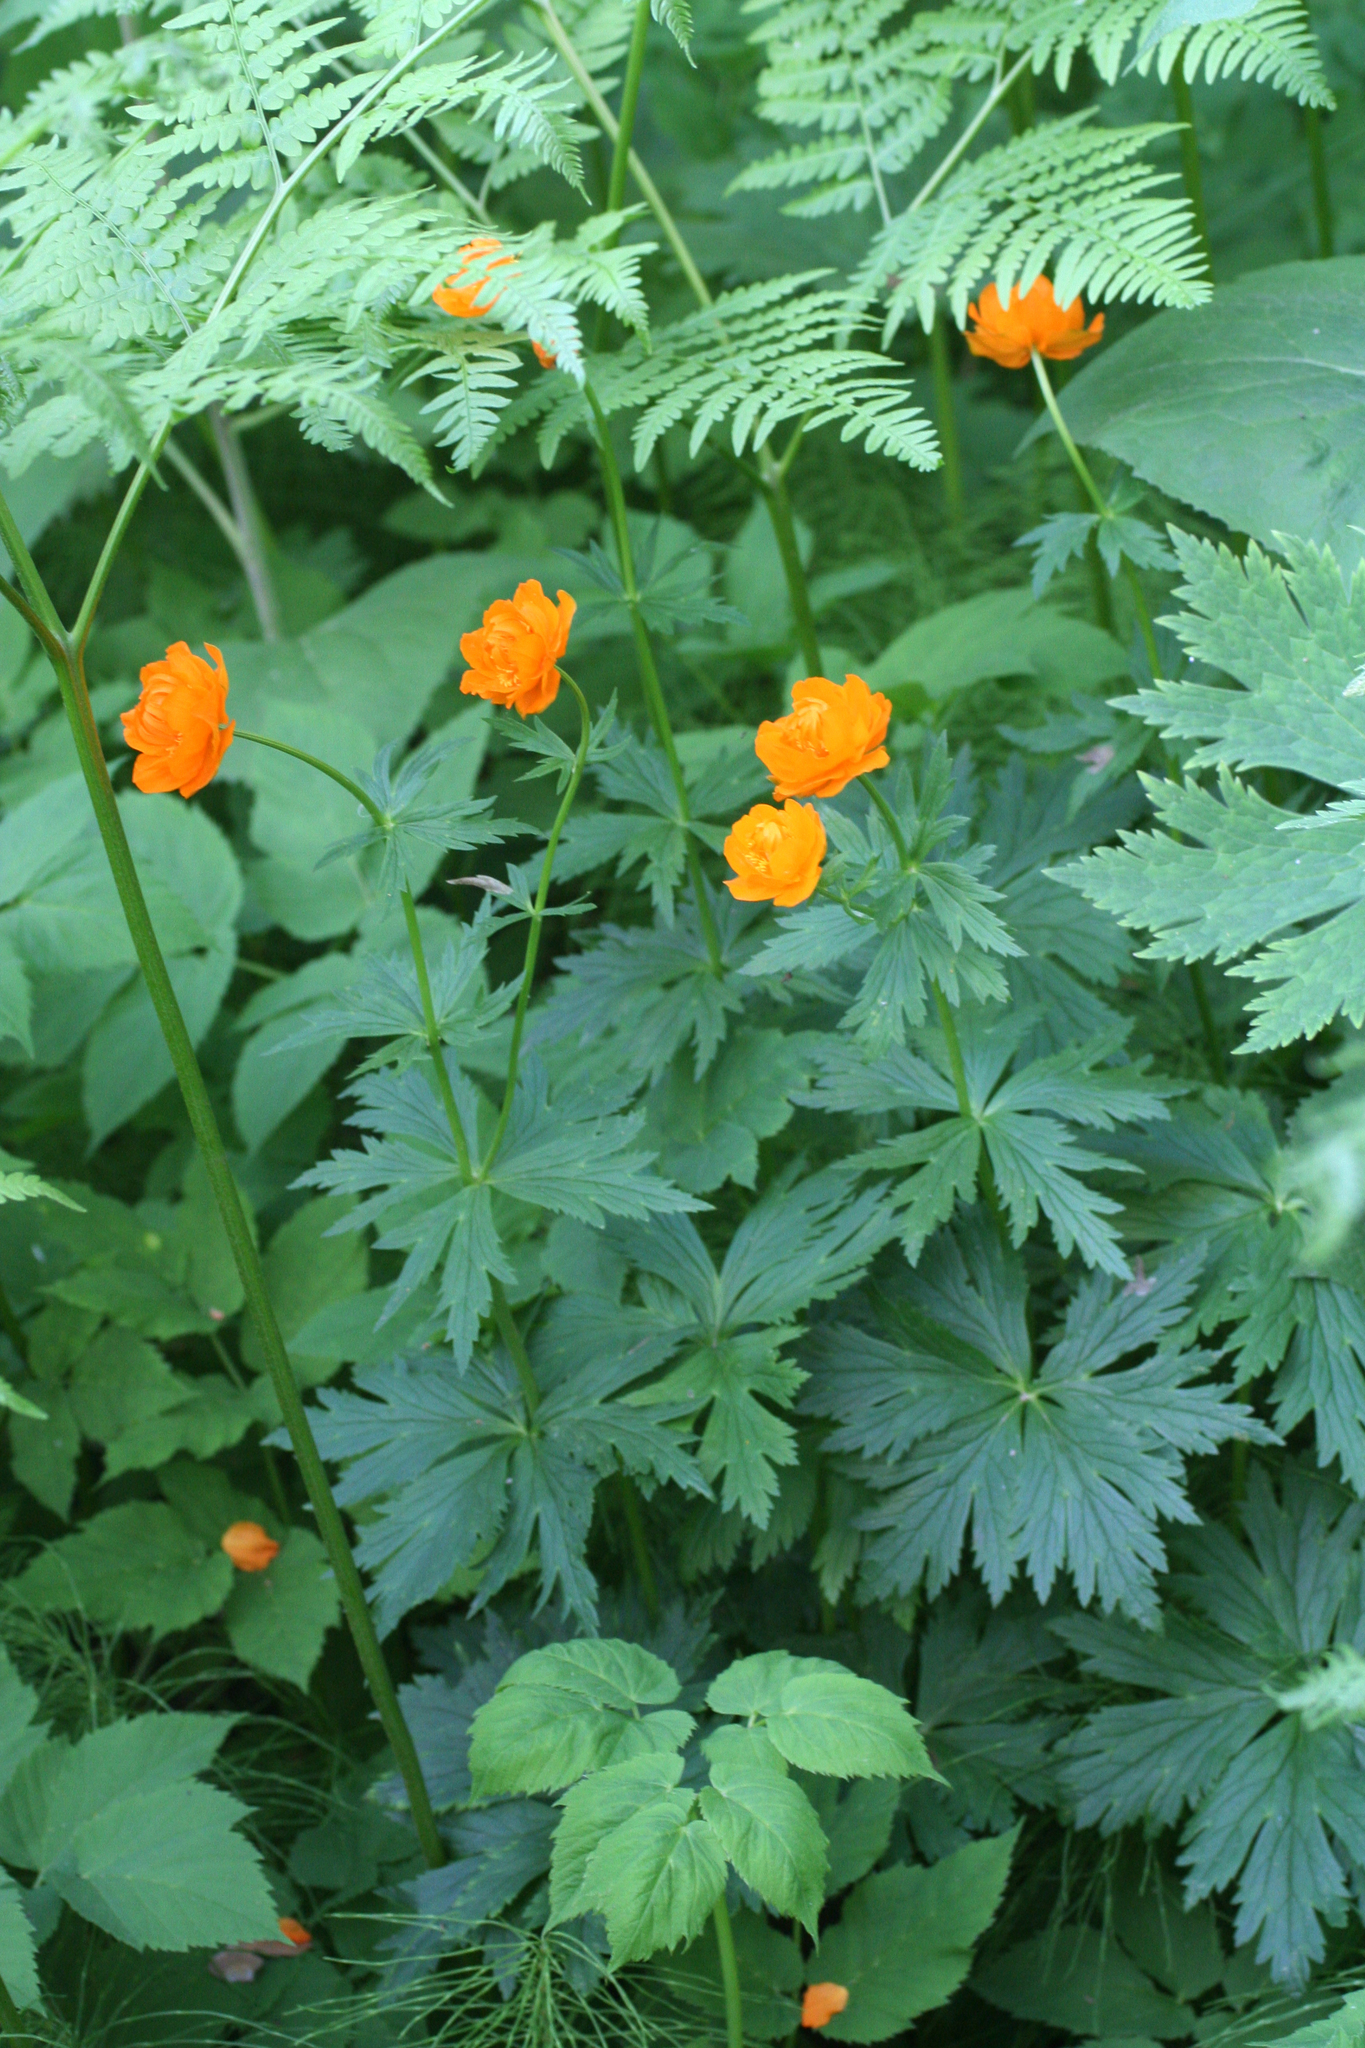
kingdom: Plantae
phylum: Tracheophyta
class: Magnoliopsida
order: Ranunculales
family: Ranunculaceae
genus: Trollius
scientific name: Trollius asiaticus
